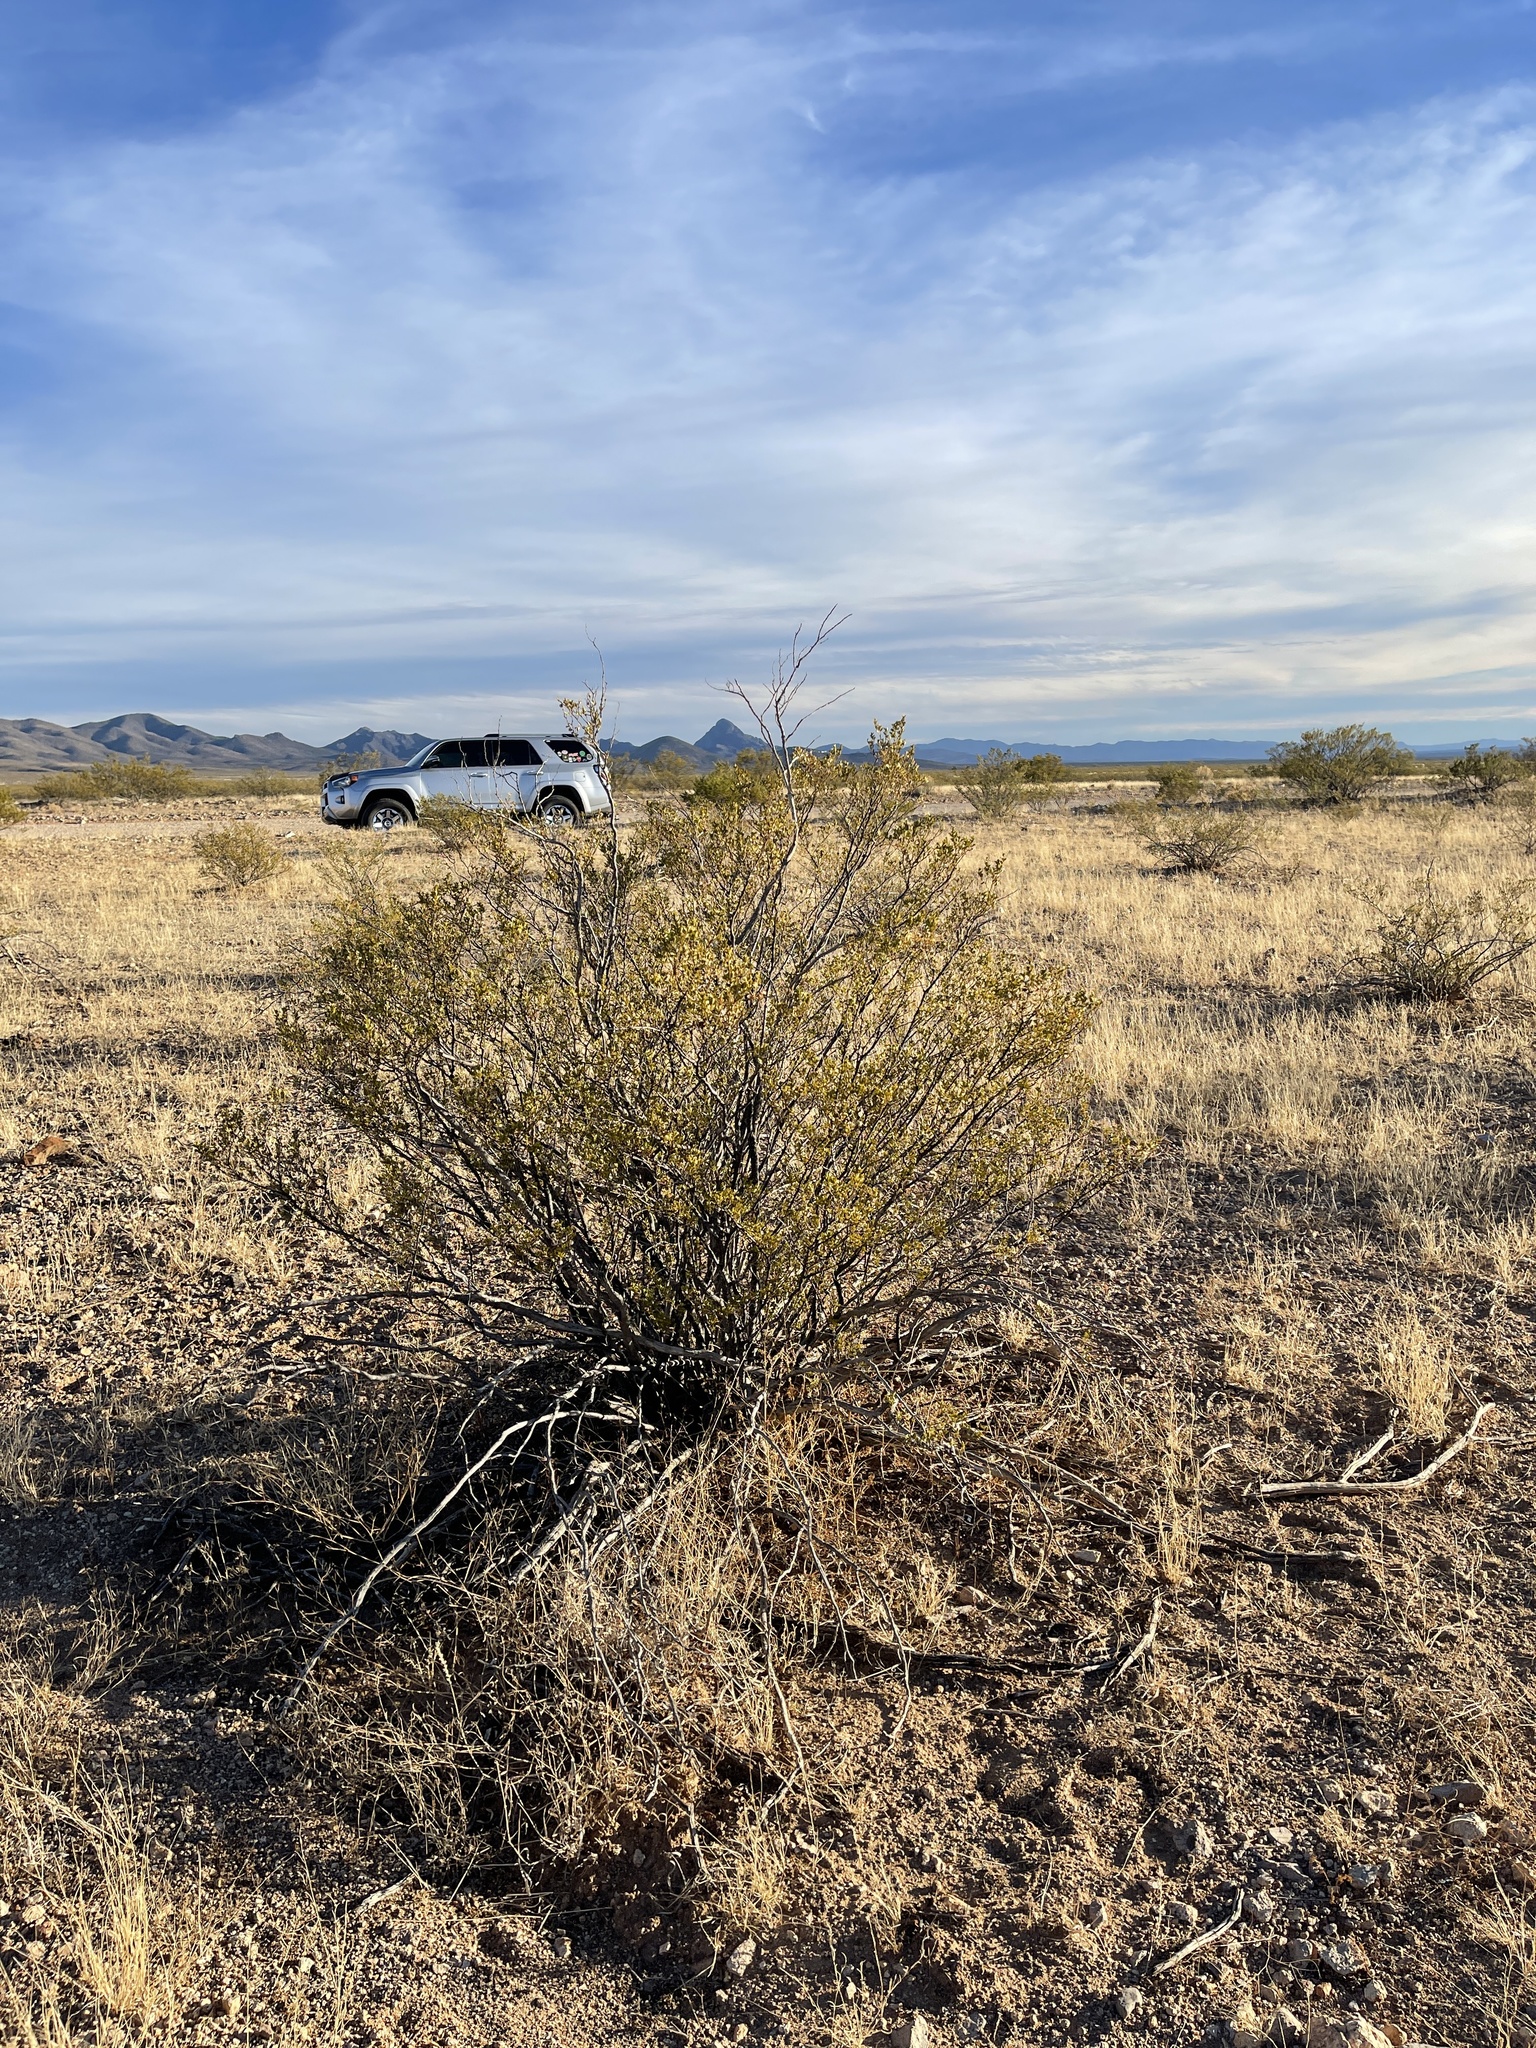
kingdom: Plantae
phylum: Tracheophyta
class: Magnoliopsida
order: Zygophyllales
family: Zygophyllaceae
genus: Larrea
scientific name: Larrea tridentata
